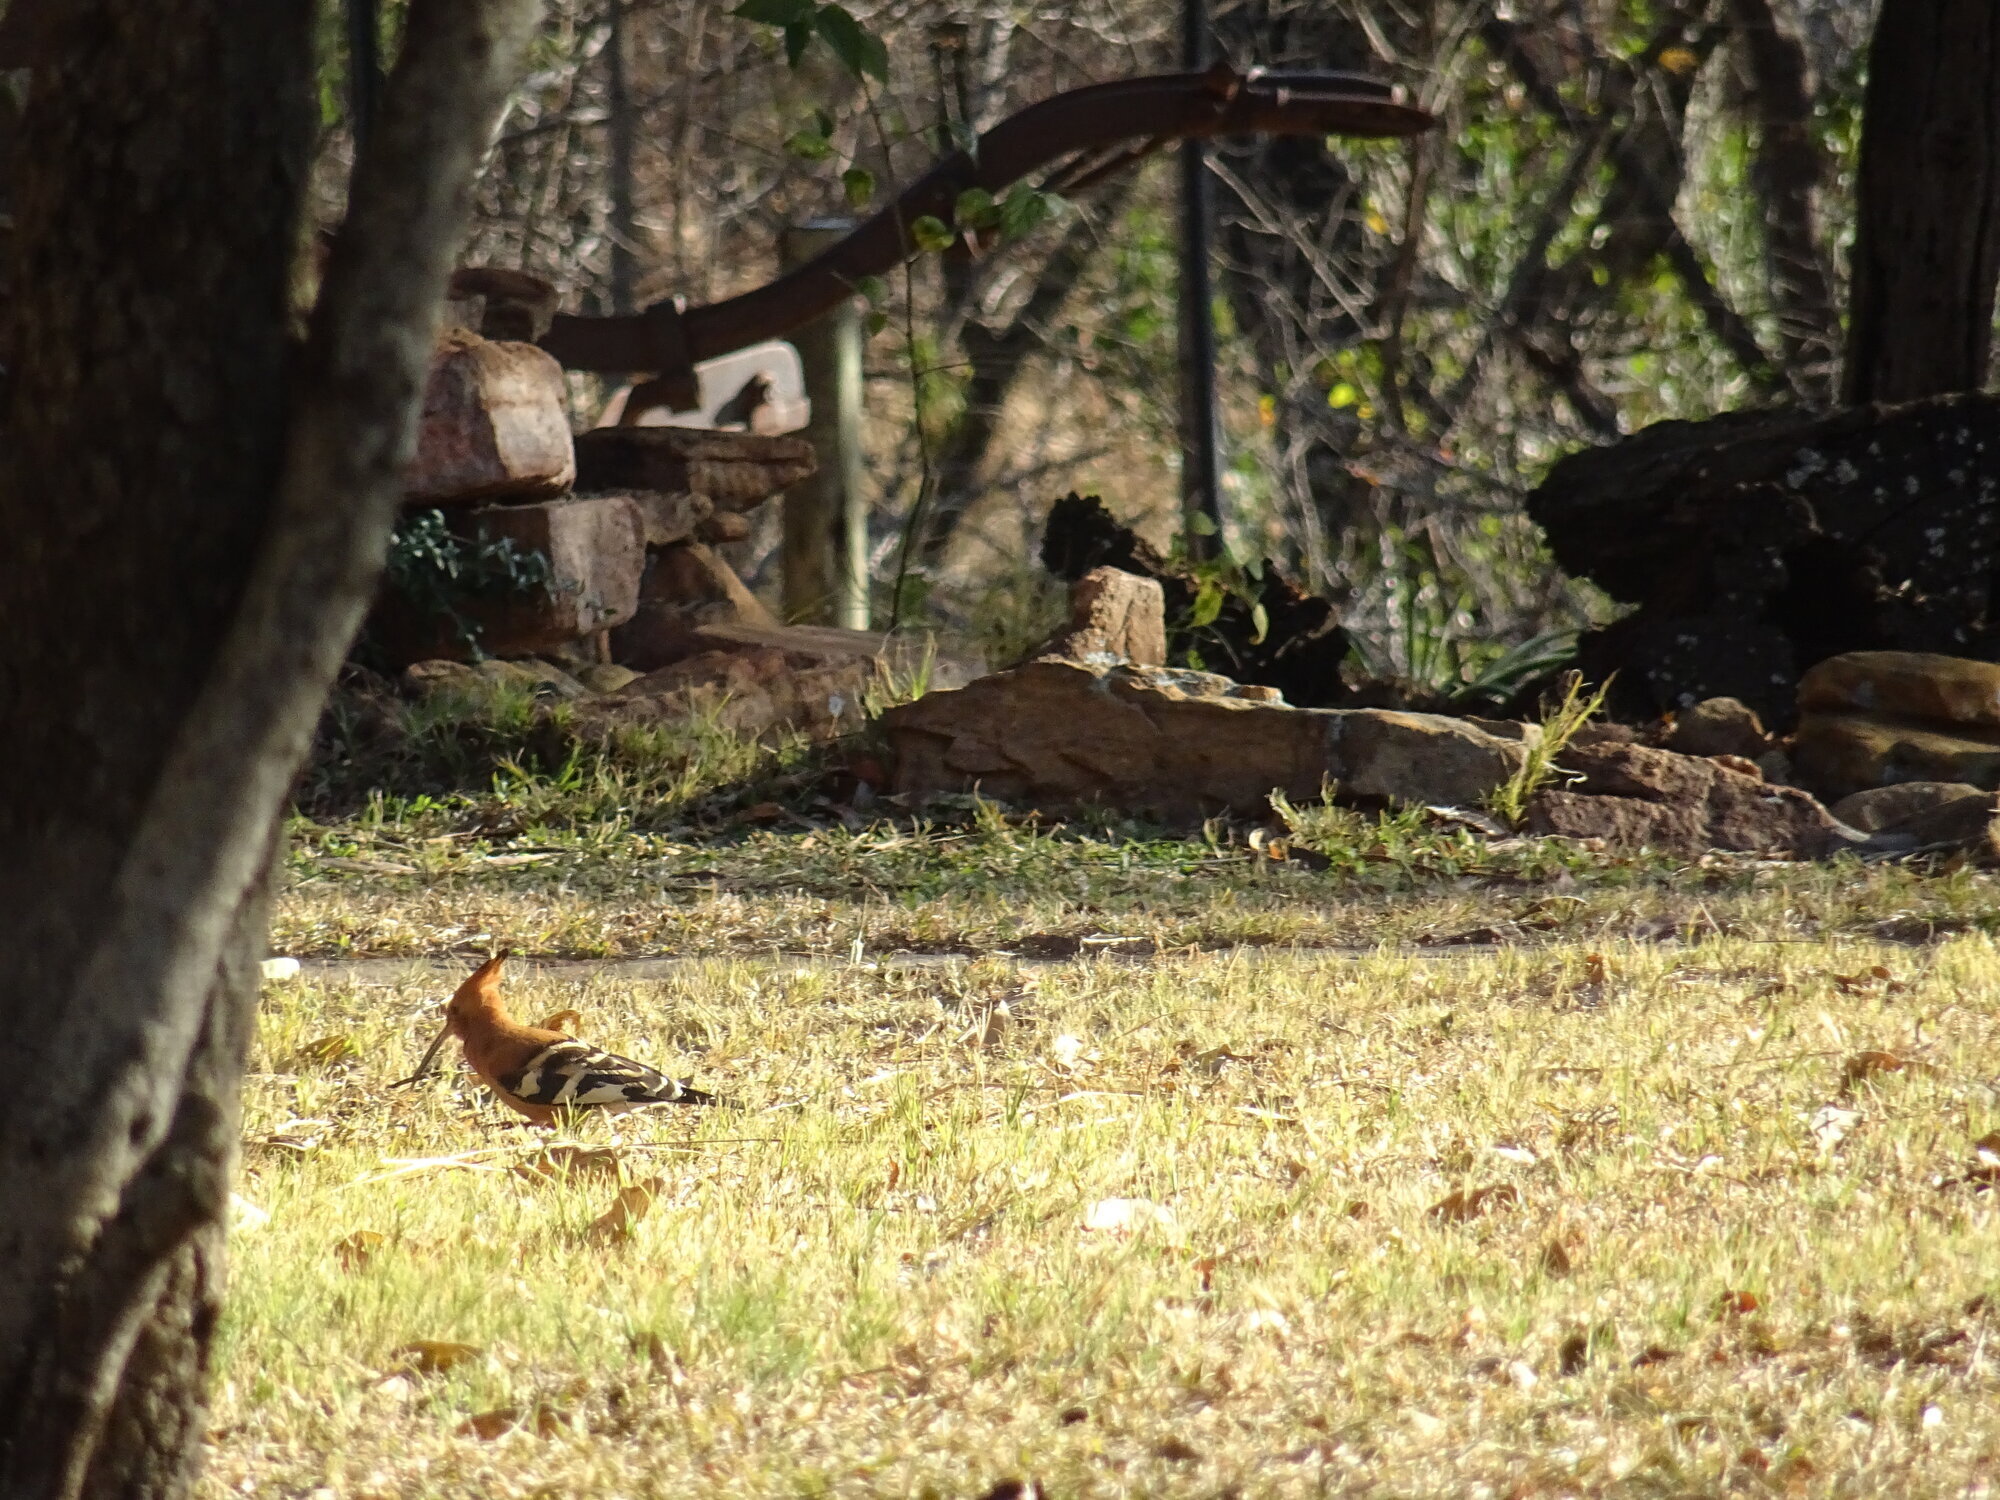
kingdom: Animalia
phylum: Chordata
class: Aves
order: Bucerotiformes
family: Upupidae
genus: Upupa
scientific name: Upupa africana
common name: African hoopoe
